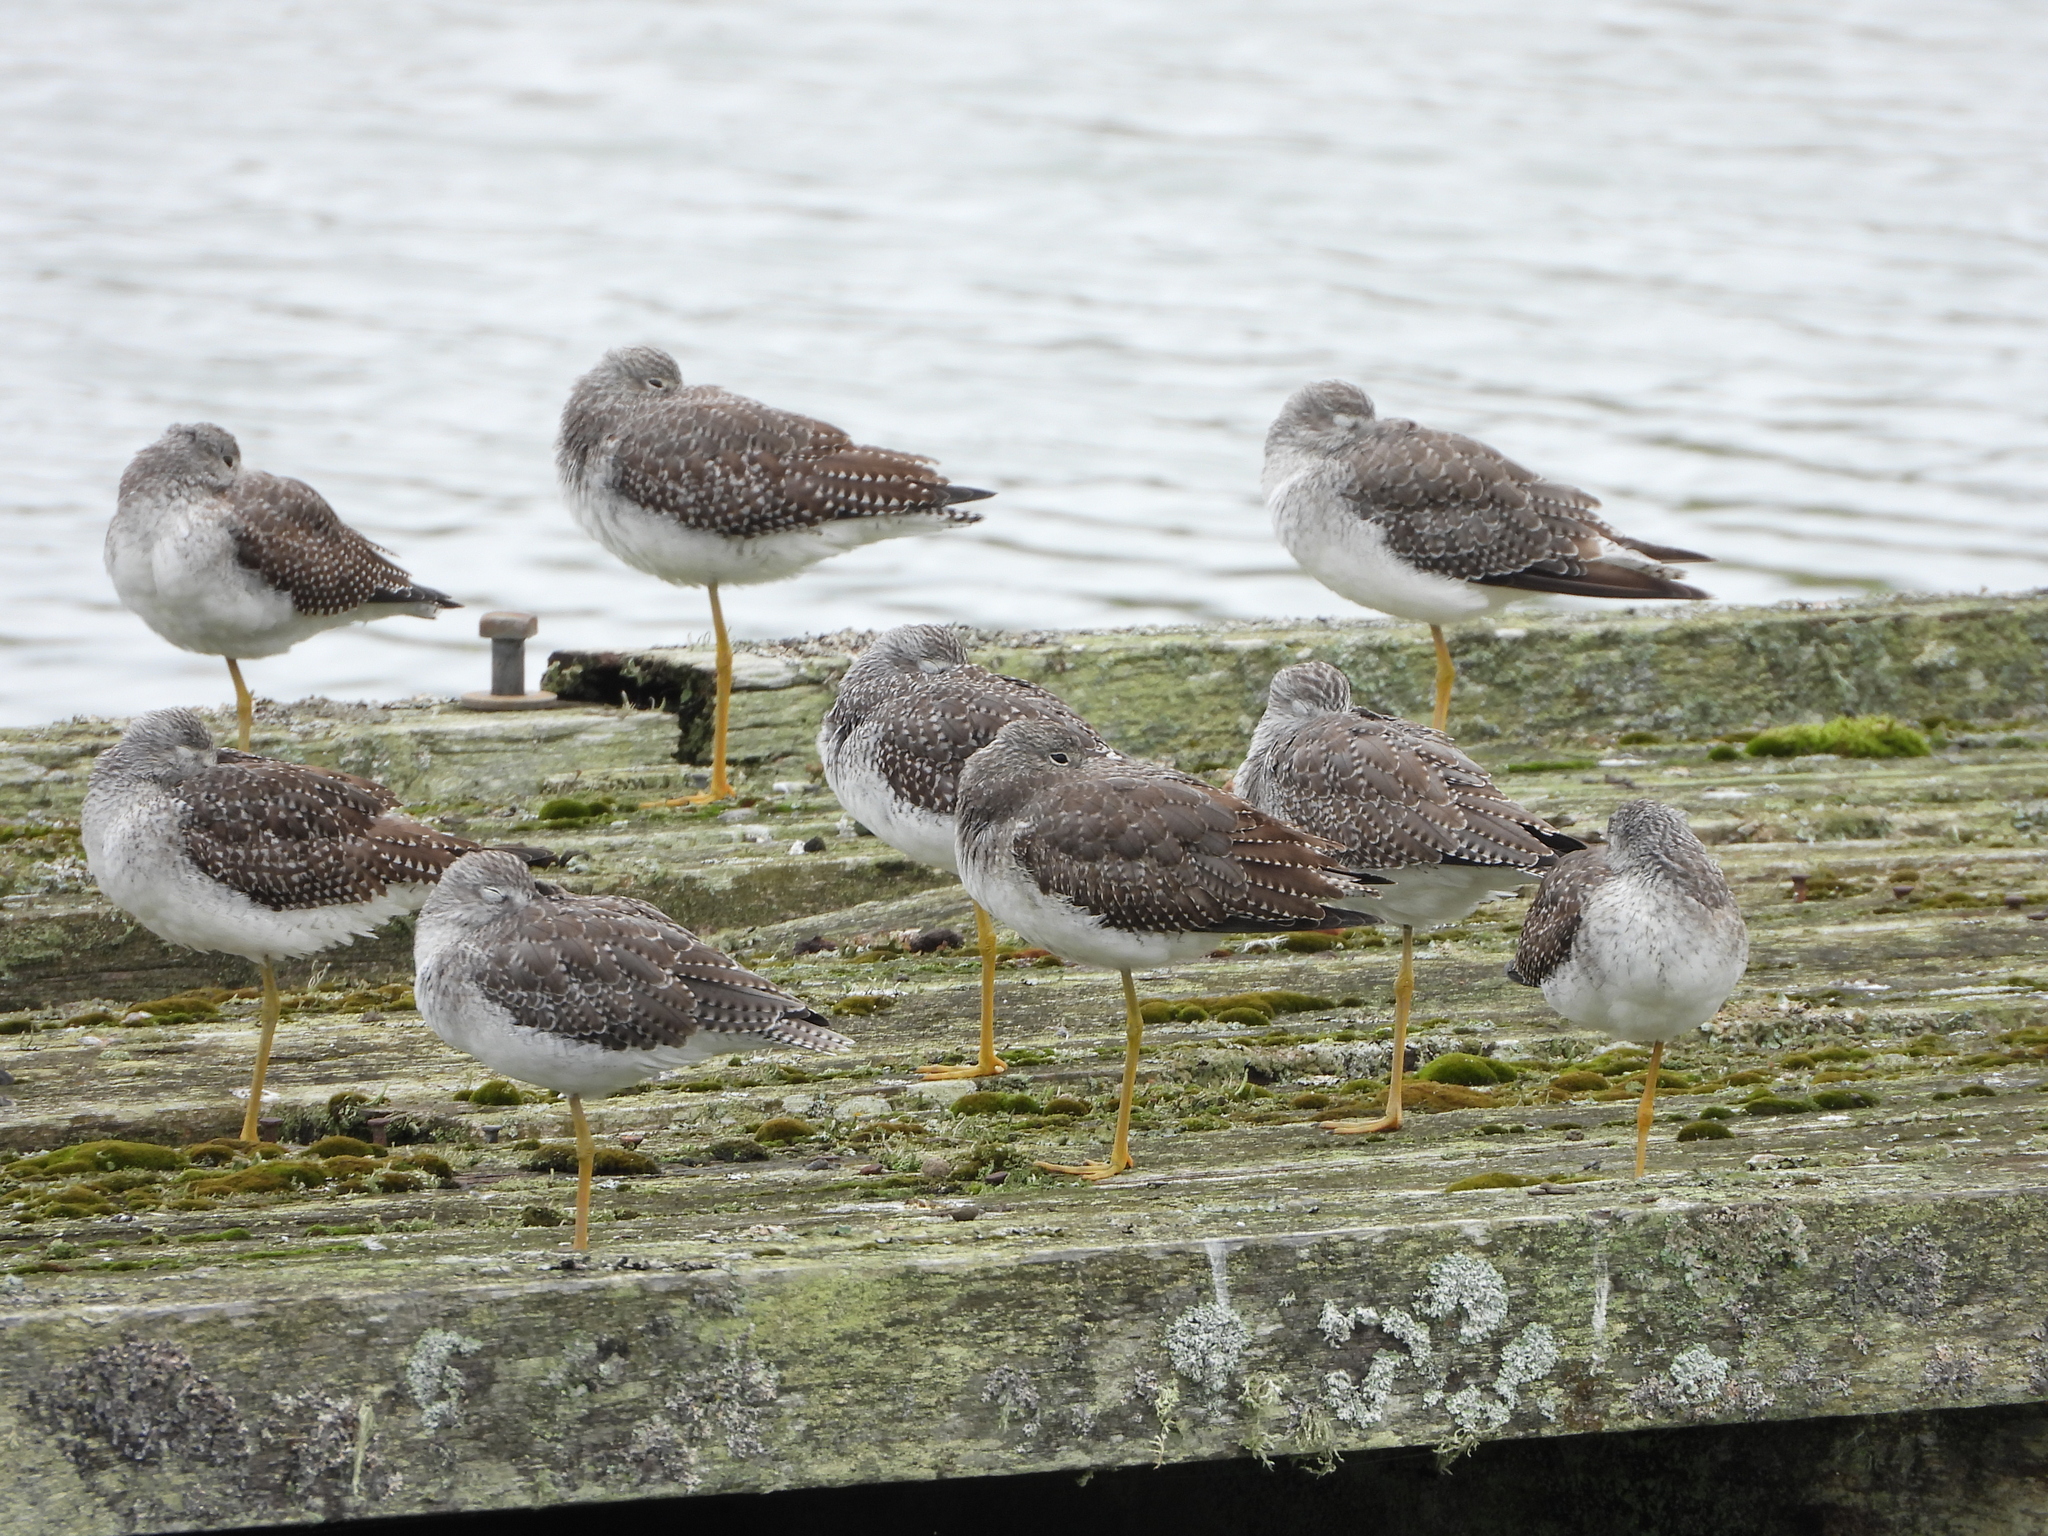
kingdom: Animalia
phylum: Chordata
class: Aves
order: Charadriiformes
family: Scolopacidae
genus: Tringa
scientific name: Tringa melanoleuca
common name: Greater yellowlegs
